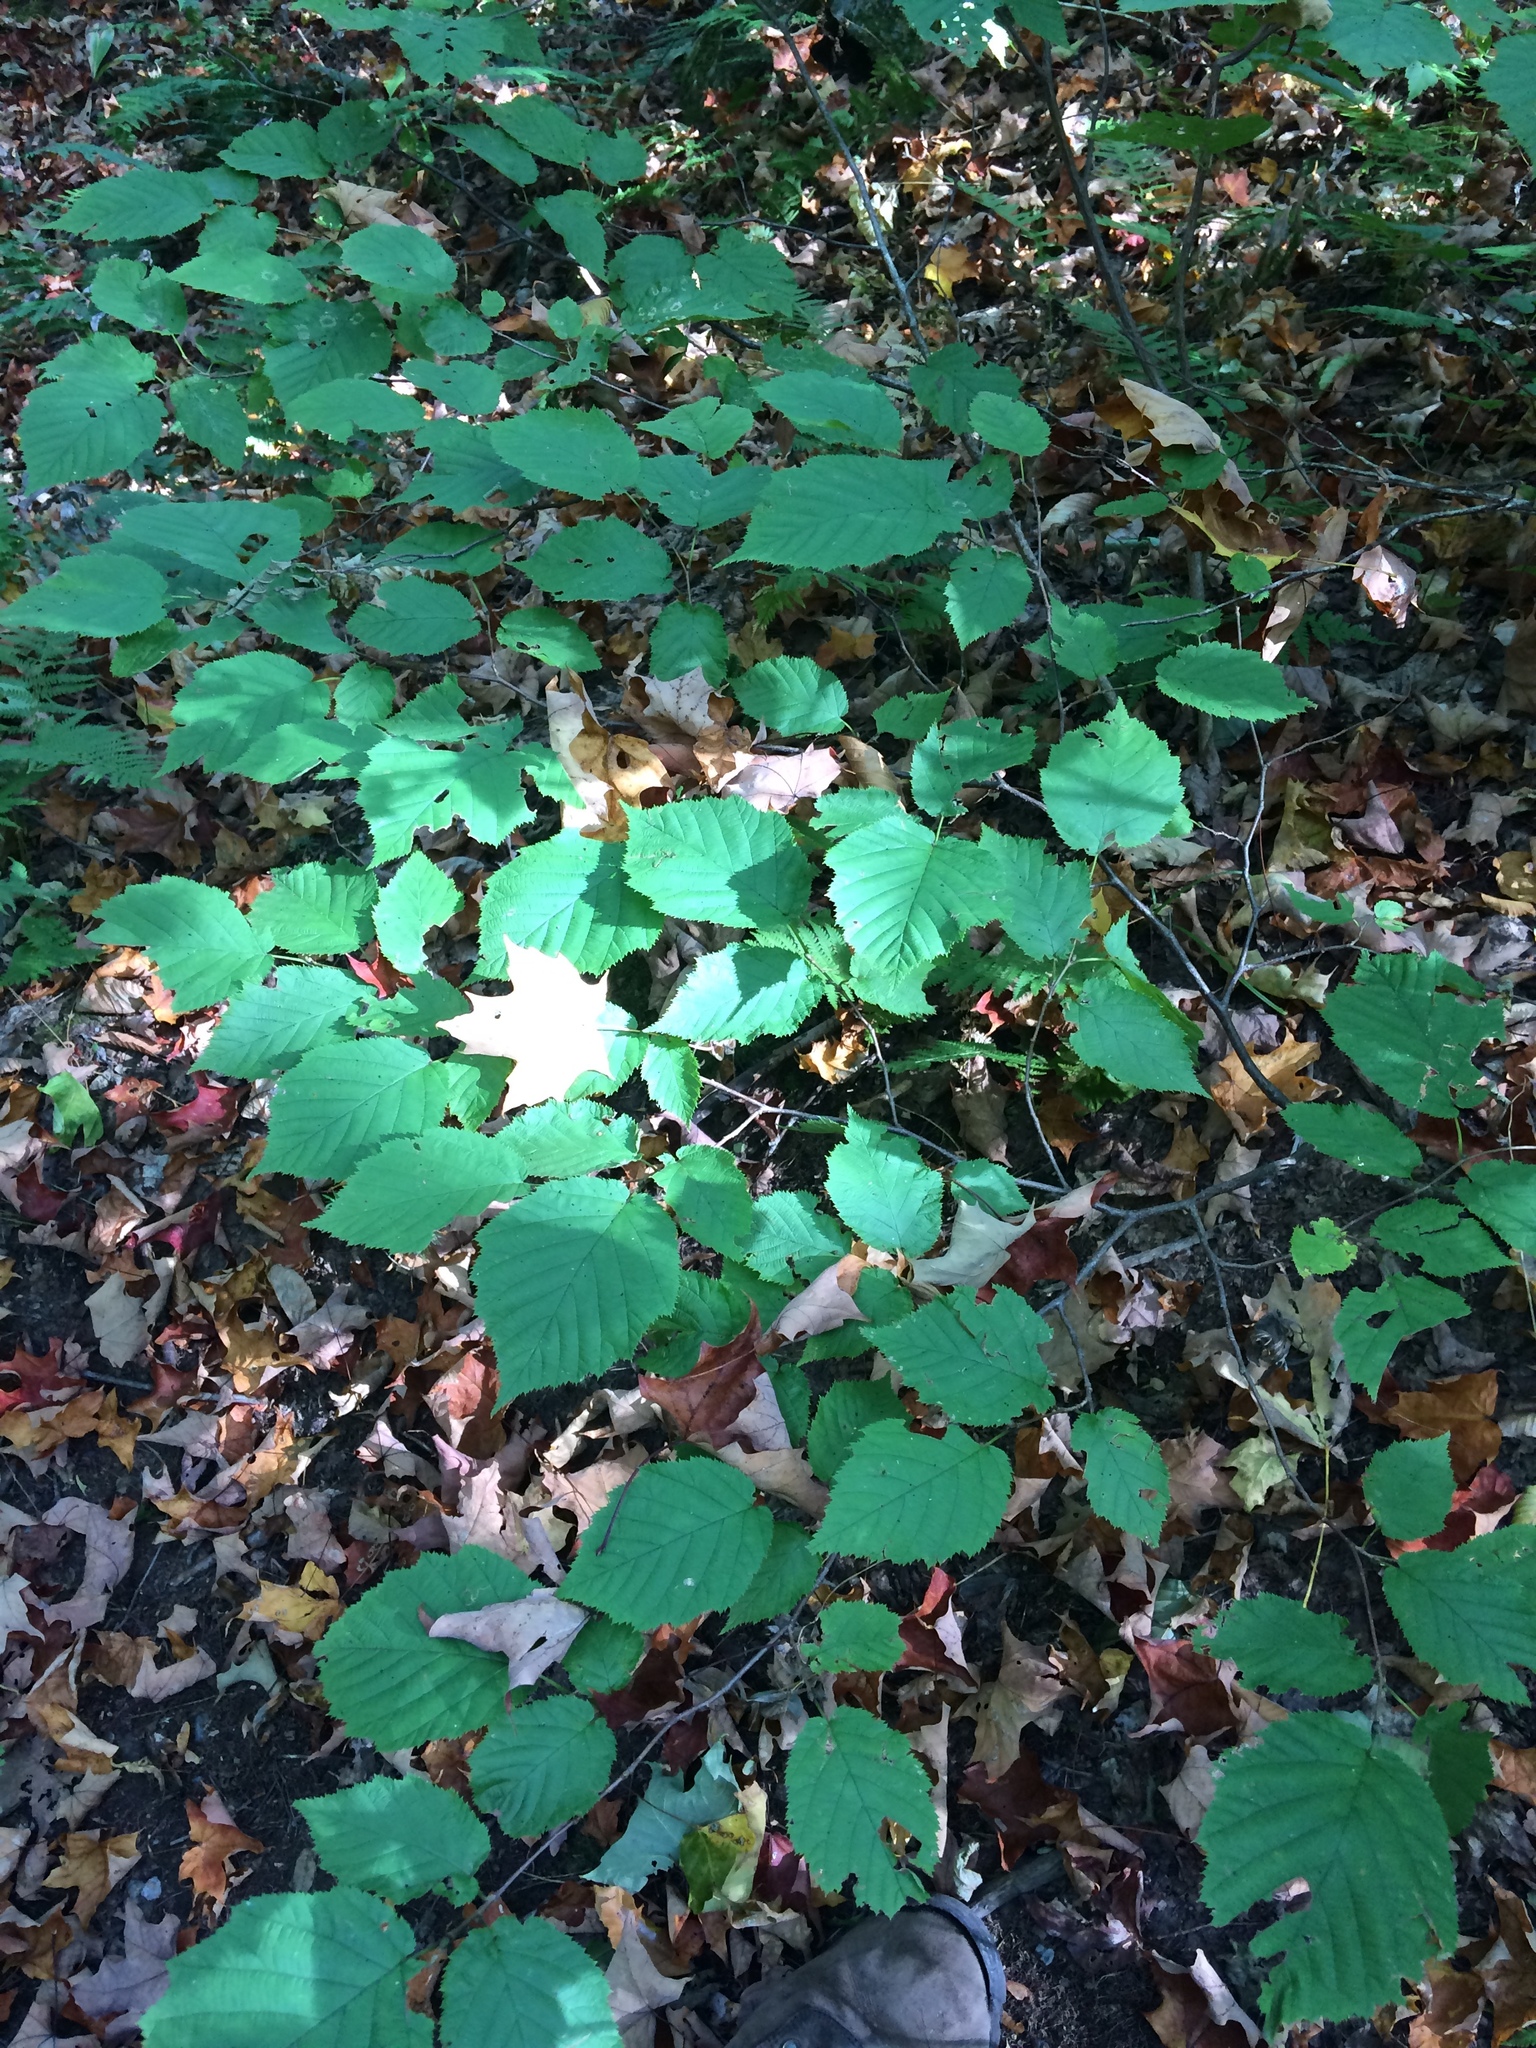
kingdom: Plantae
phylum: Tracheophyta
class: Magnoliopsida
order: Fagales
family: Betulaceae
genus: Corylus
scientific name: Corylus cornuta
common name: Beaked hazel
